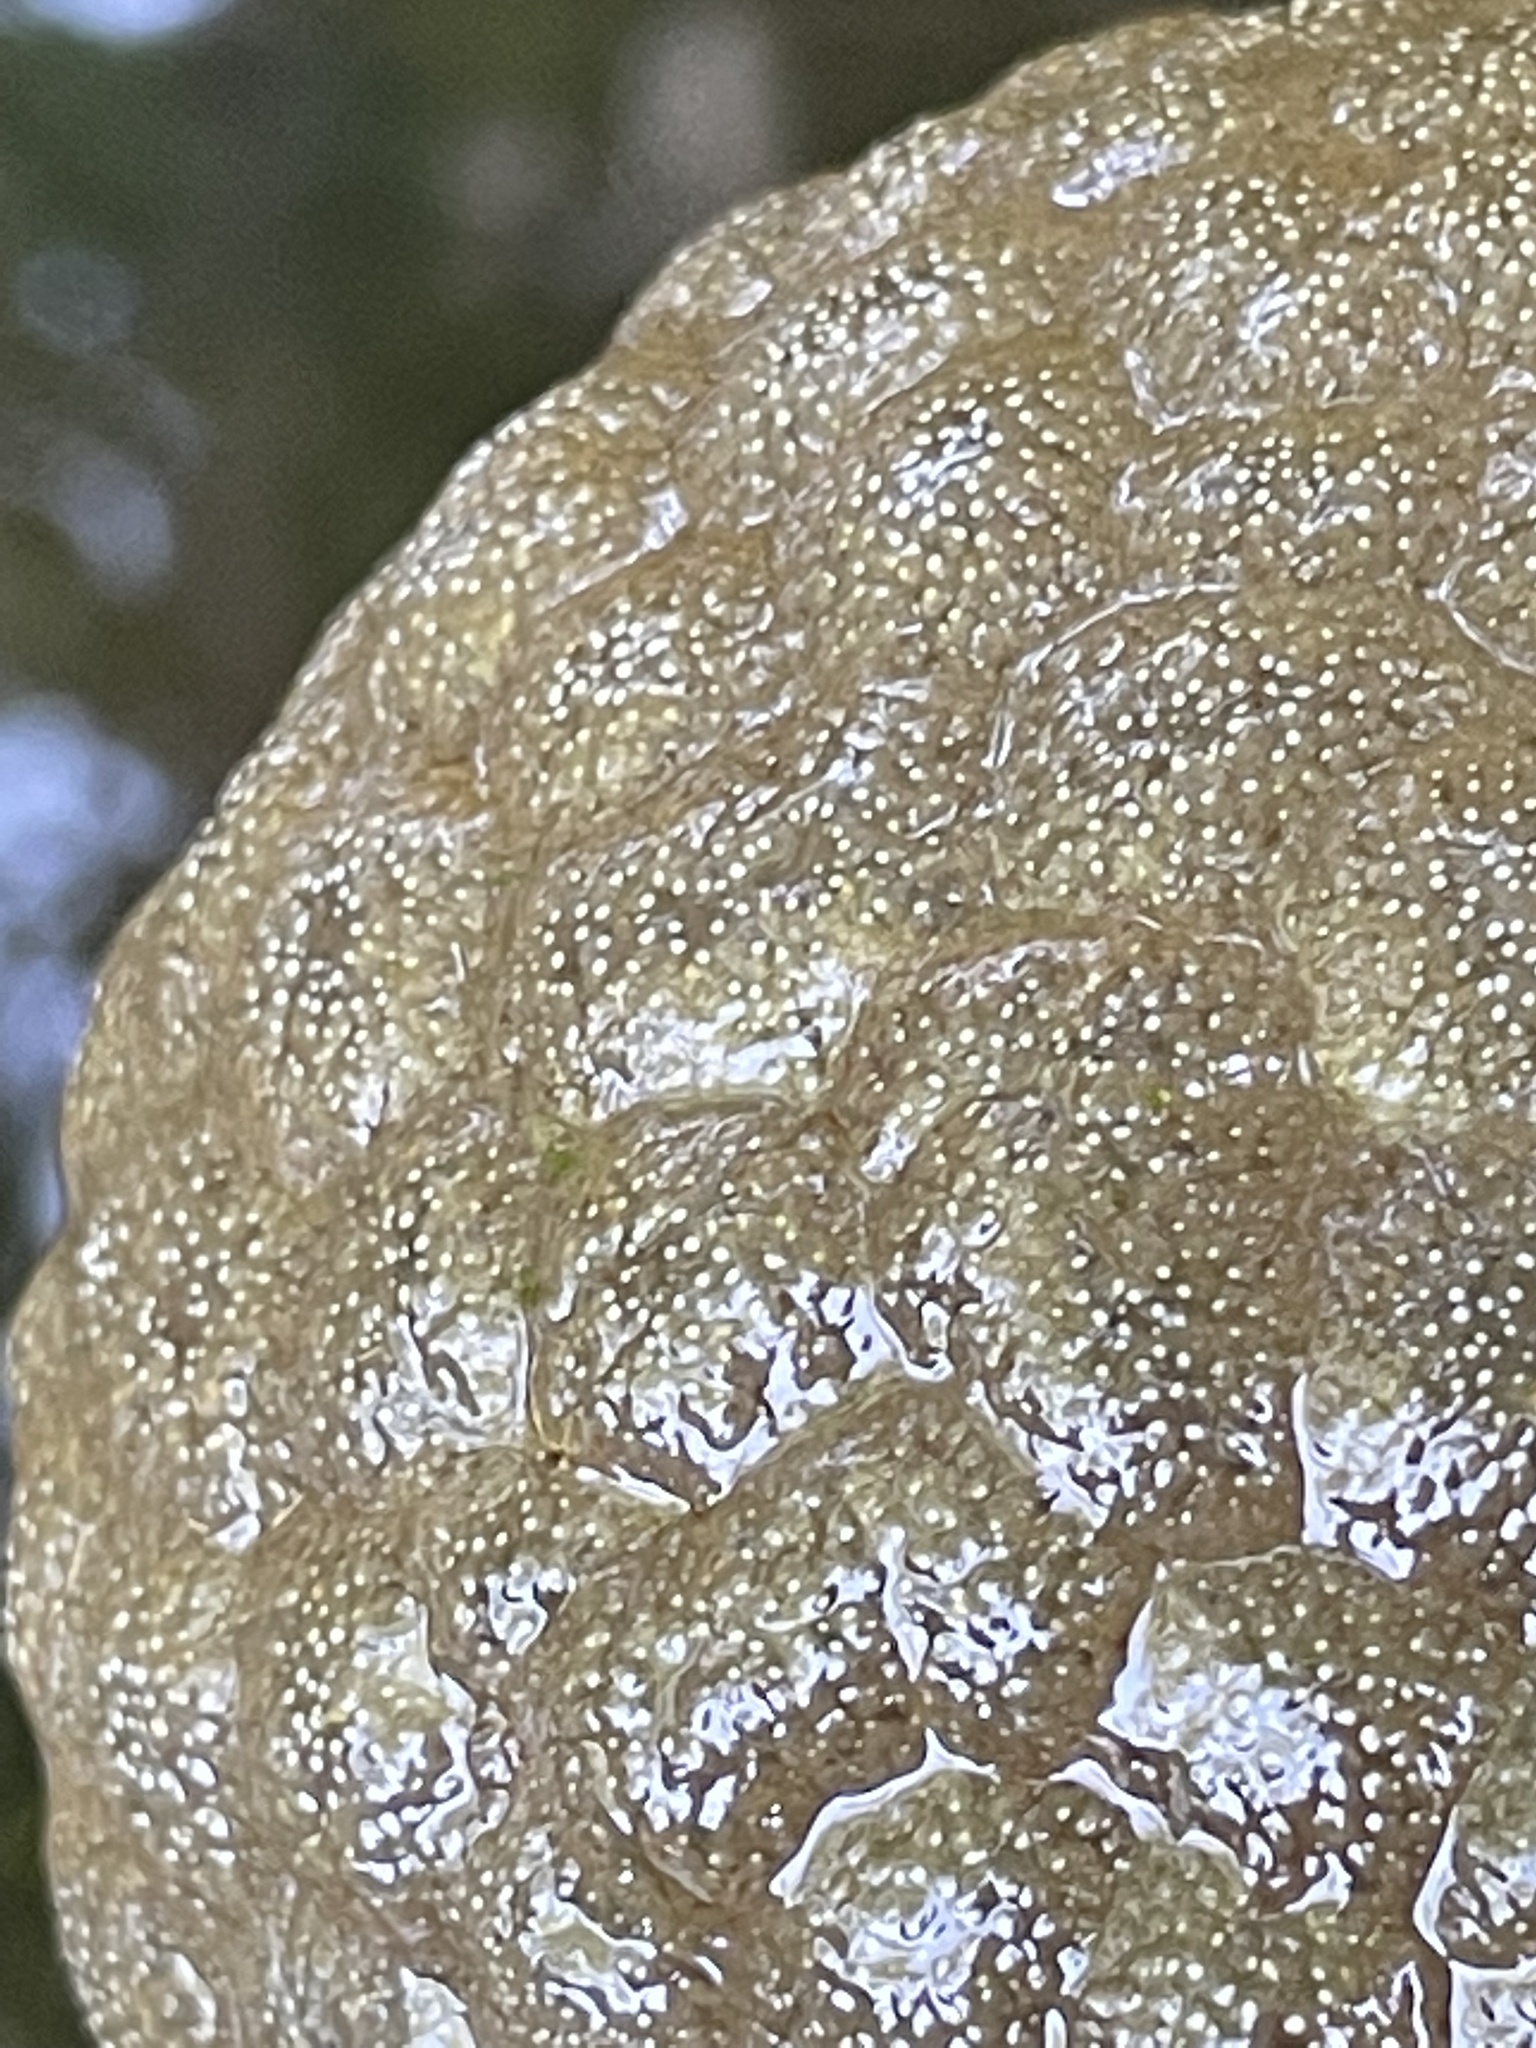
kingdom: Animalia
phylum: Bryozoa
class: Phylactolaemata
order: Plumatellida
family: Pectinatellidae
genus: Pectinatella
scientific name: Pectinatella magnifica
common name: Magnificent bryozoan
